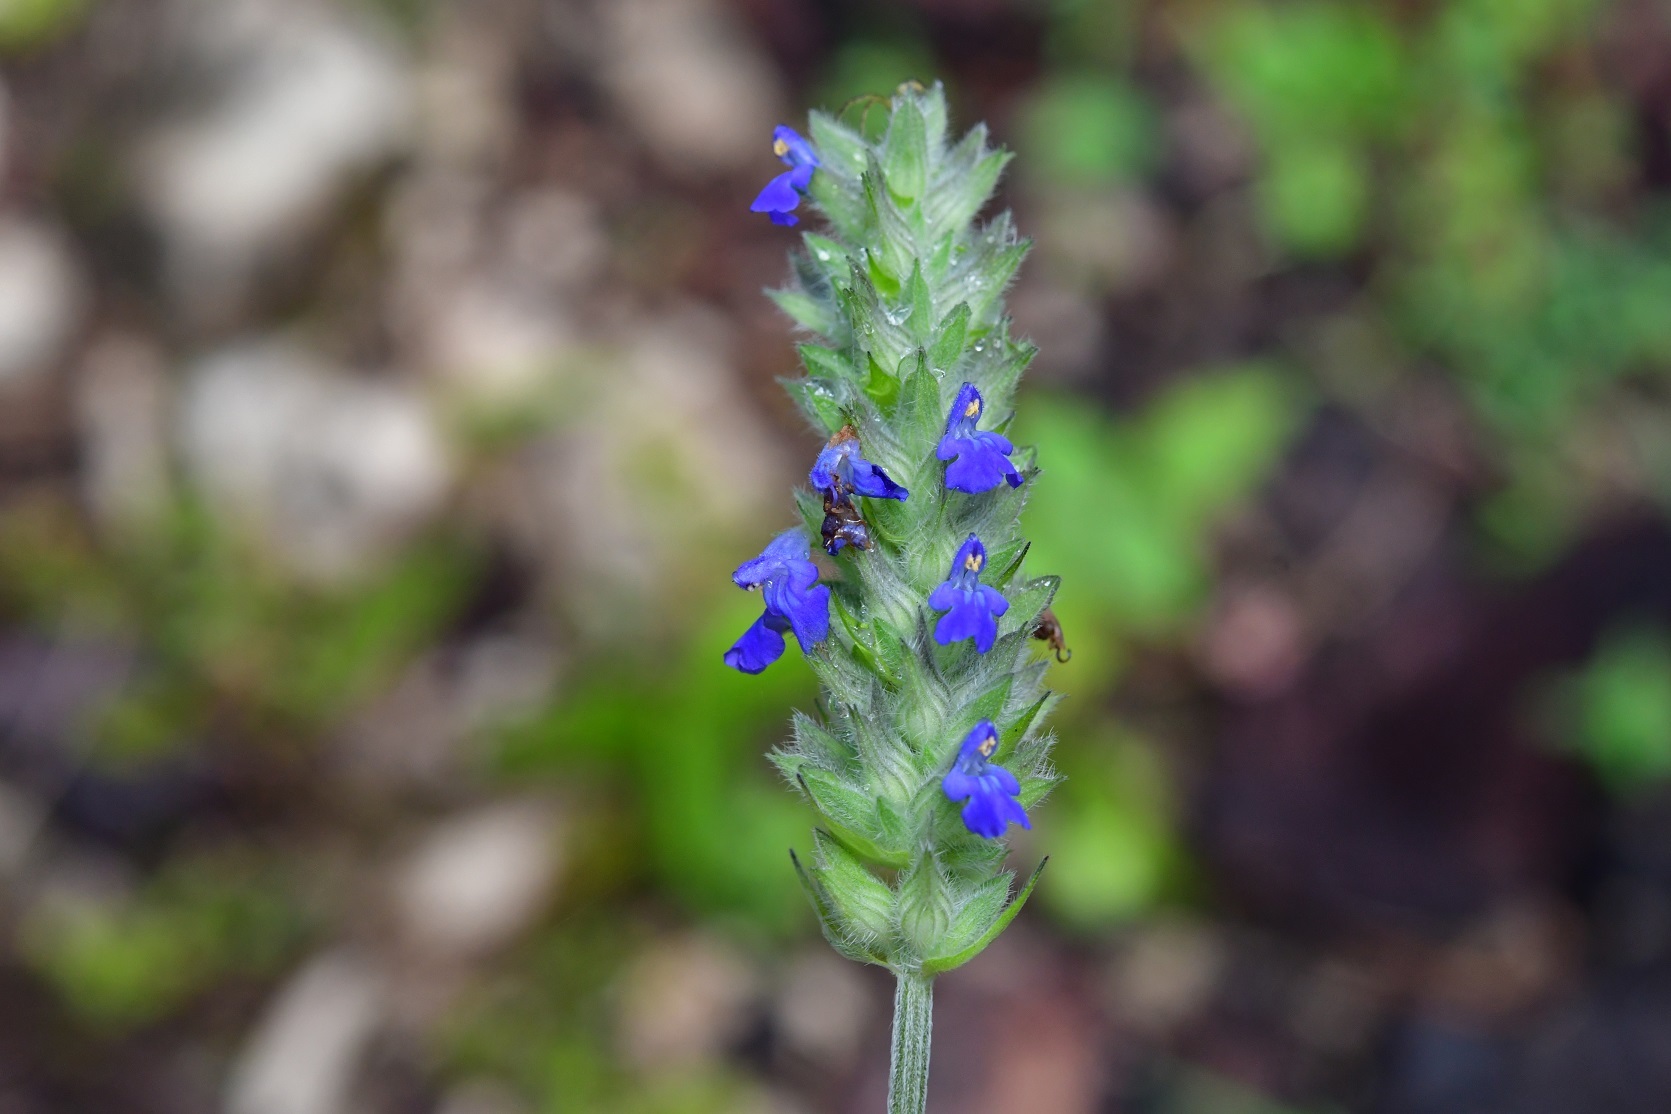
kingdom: Plantae
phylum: Tracheophyta
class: Magnoliopsida
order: Lamiales
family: Lamiaceae
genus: Salvia
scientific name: Salvia polystachia
